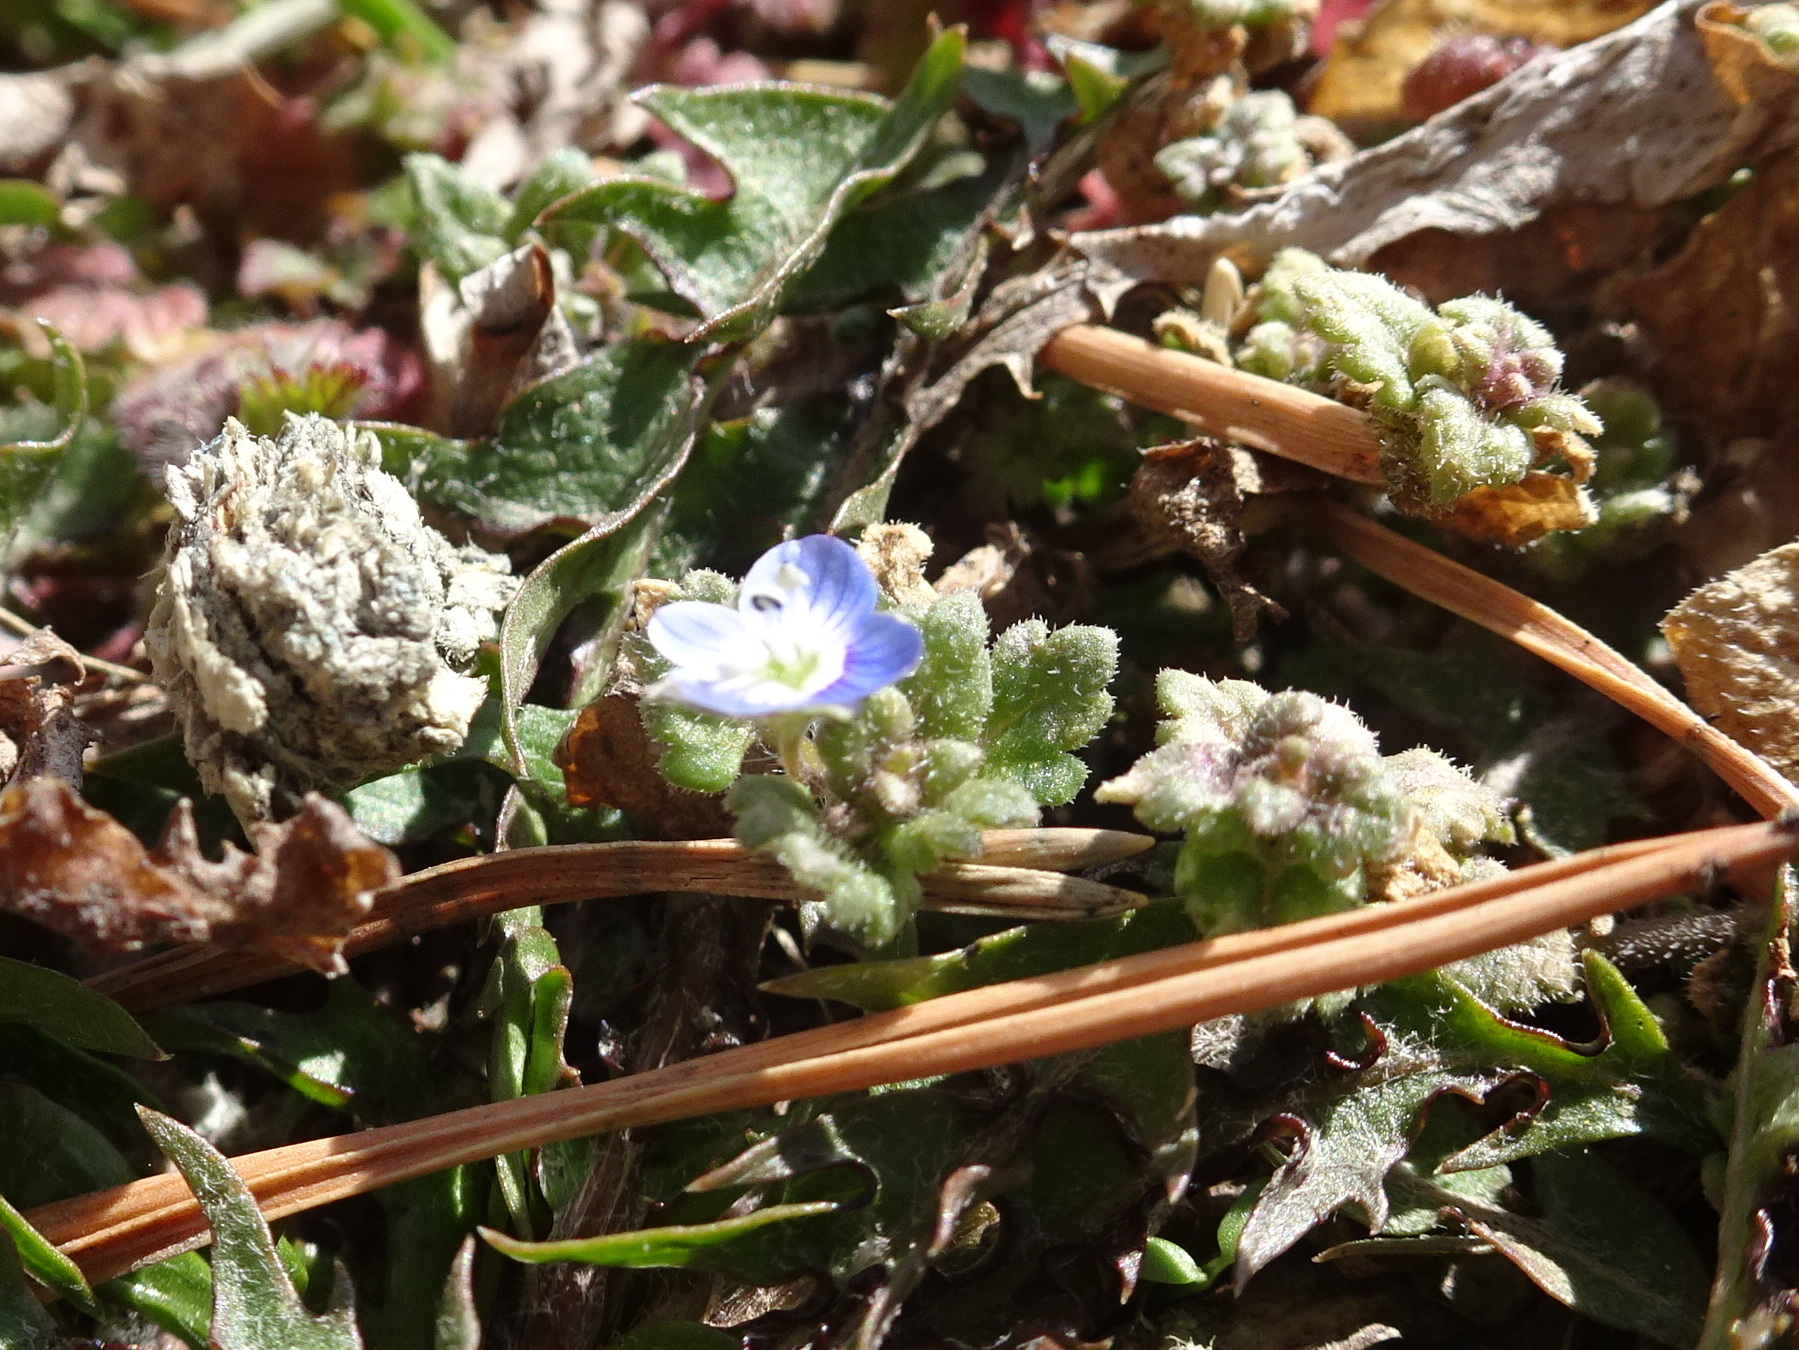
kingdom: Plantae
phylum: Tracheophyta
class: Magnoliopsida
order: Lamiales
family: Plantaginaceae
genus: Veronica
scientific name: Veronica polita
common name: Grey field-speedwell
